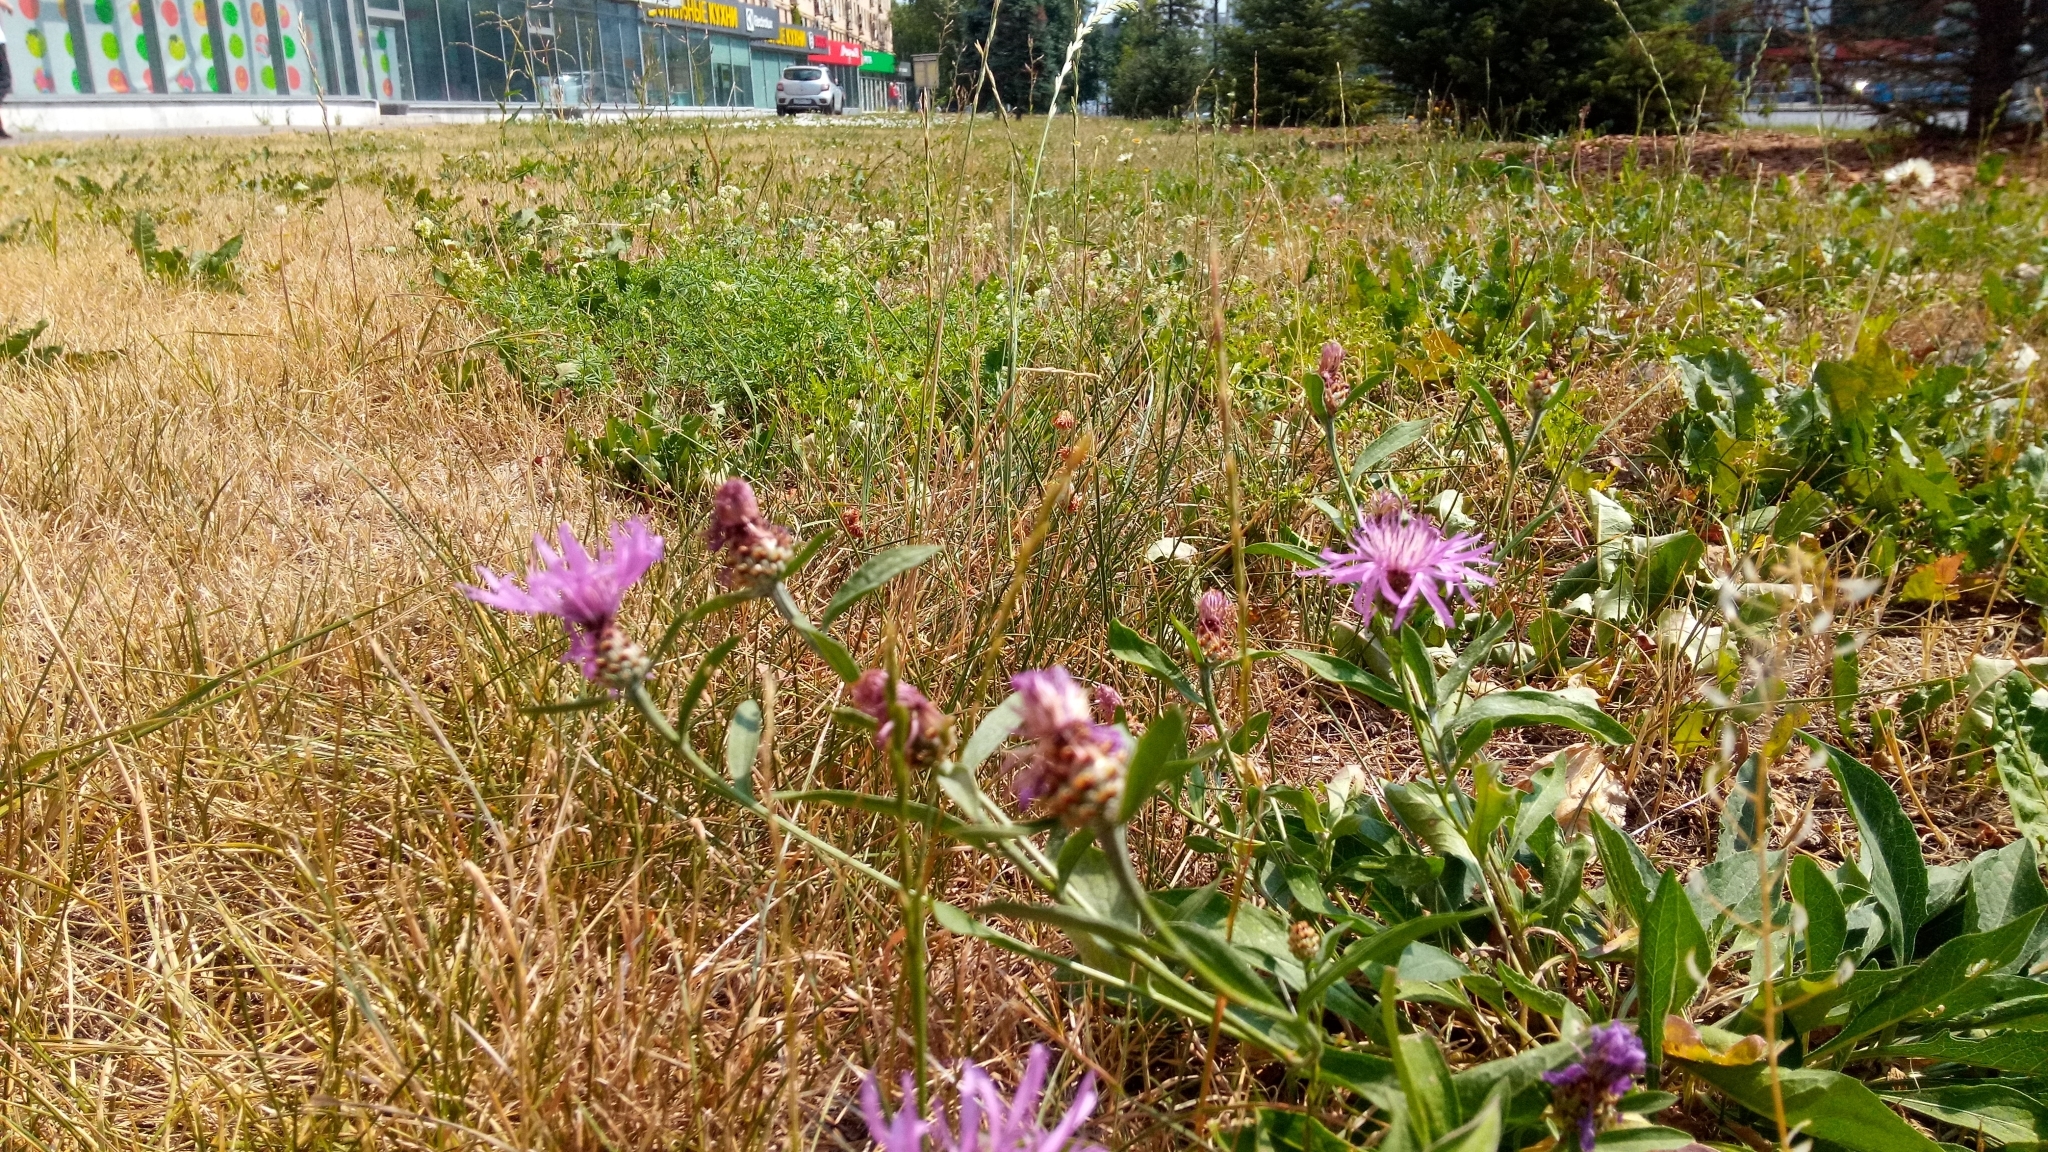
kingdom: Plantae
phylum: Tracheophyta
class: Magnoliopsida
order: Asterales
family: Asteraceae
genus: Centaurea
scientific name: Centaurea jacea
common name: Brown knapweed
